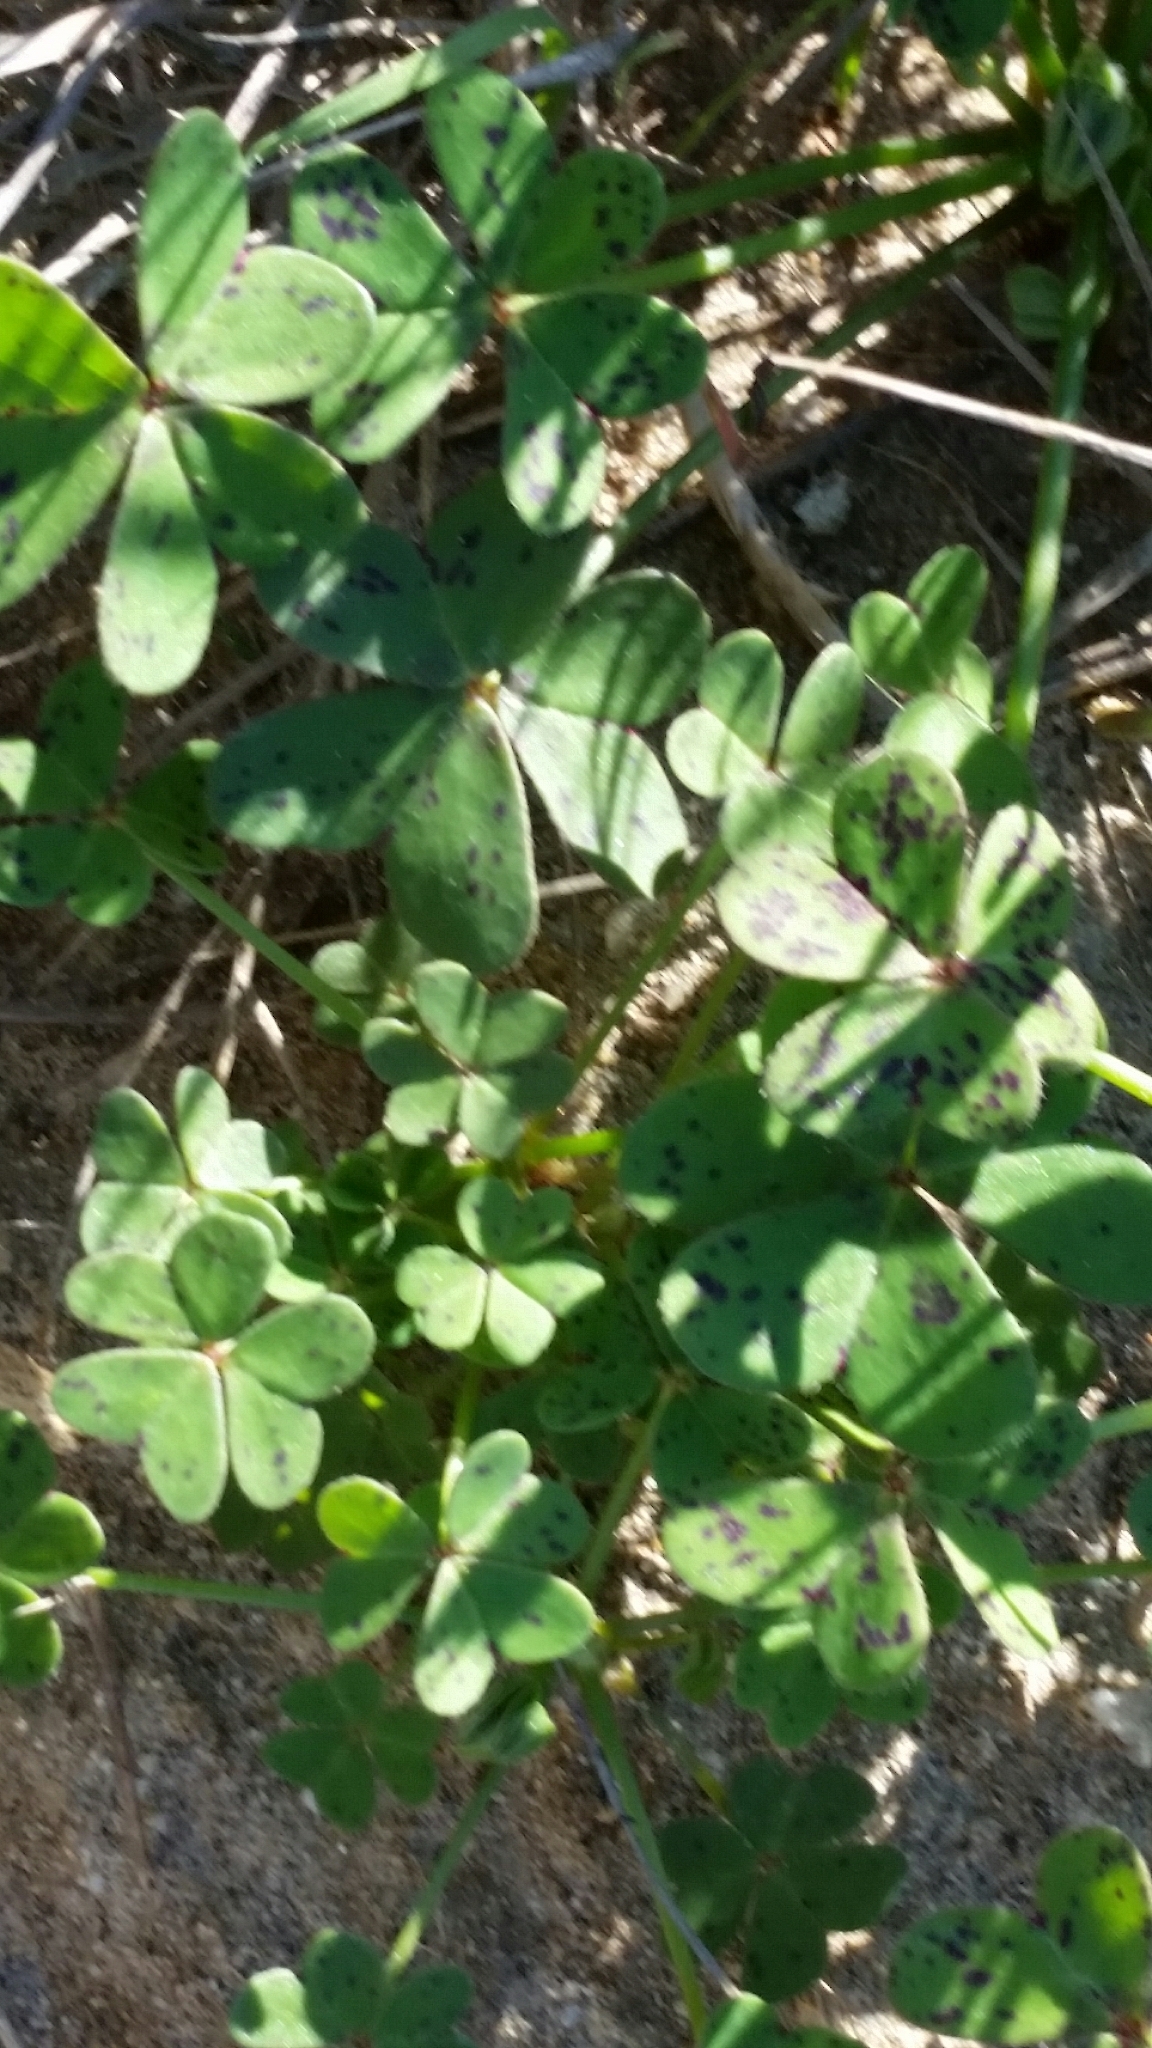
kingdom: Plantae
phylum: Tracheophyta
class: Magnoliopsida
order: Oxalidales
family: Oxalidaceae
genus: Oxalis
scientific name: Oxalis pes-caprae
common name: Bermuda-buttercup
